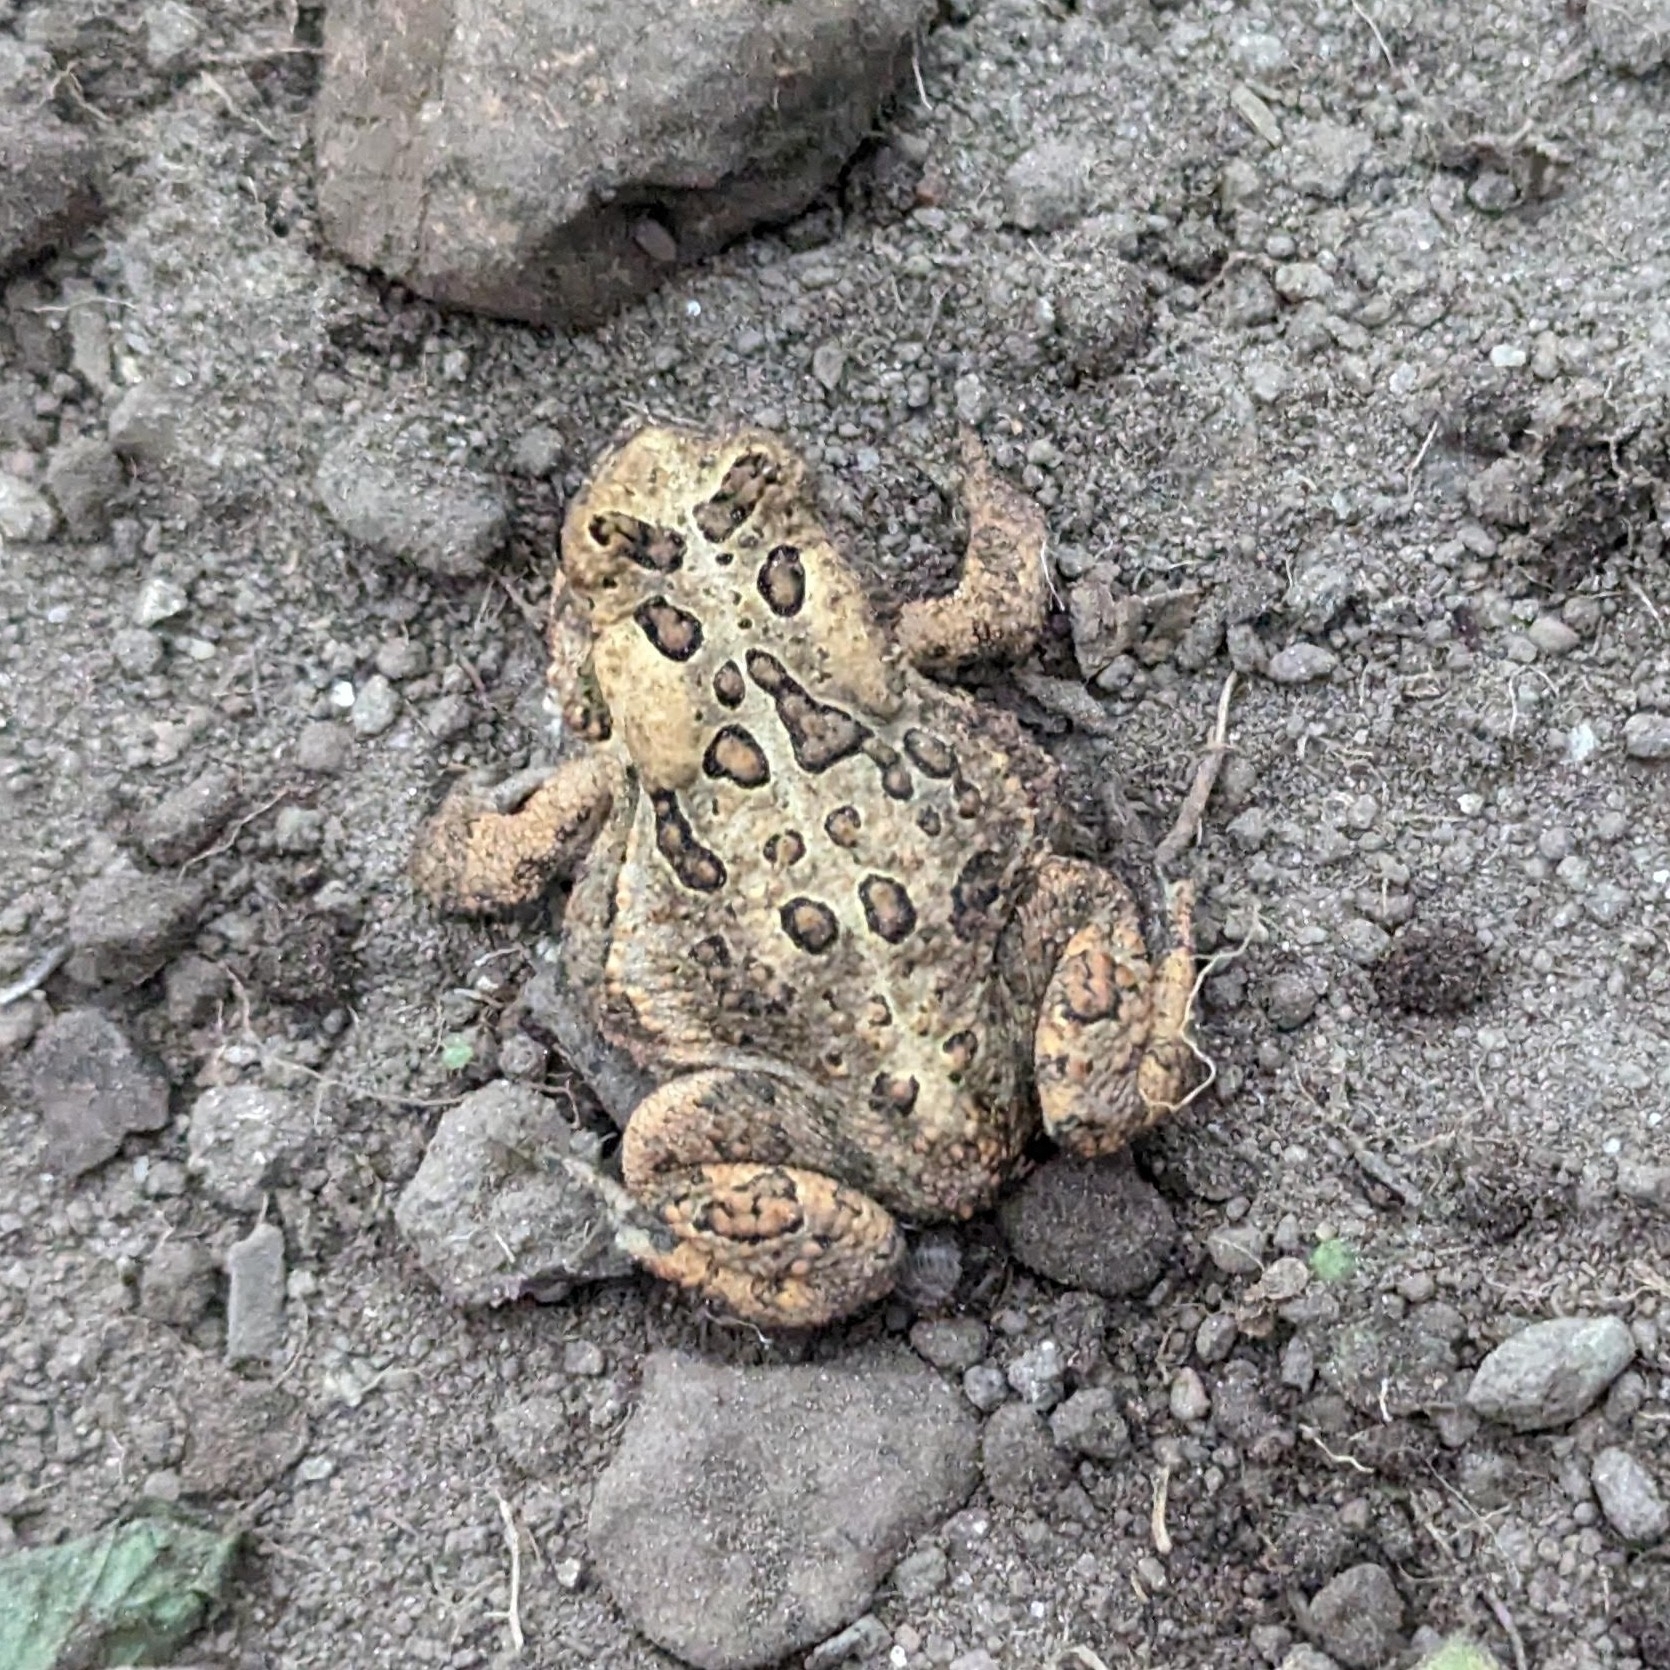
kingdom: Animalia
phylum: Chordata
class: Amphibia
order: Anura
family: Bufonidae
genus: Anaxyrus
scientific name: Anaxyrus americanus
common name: American toad
